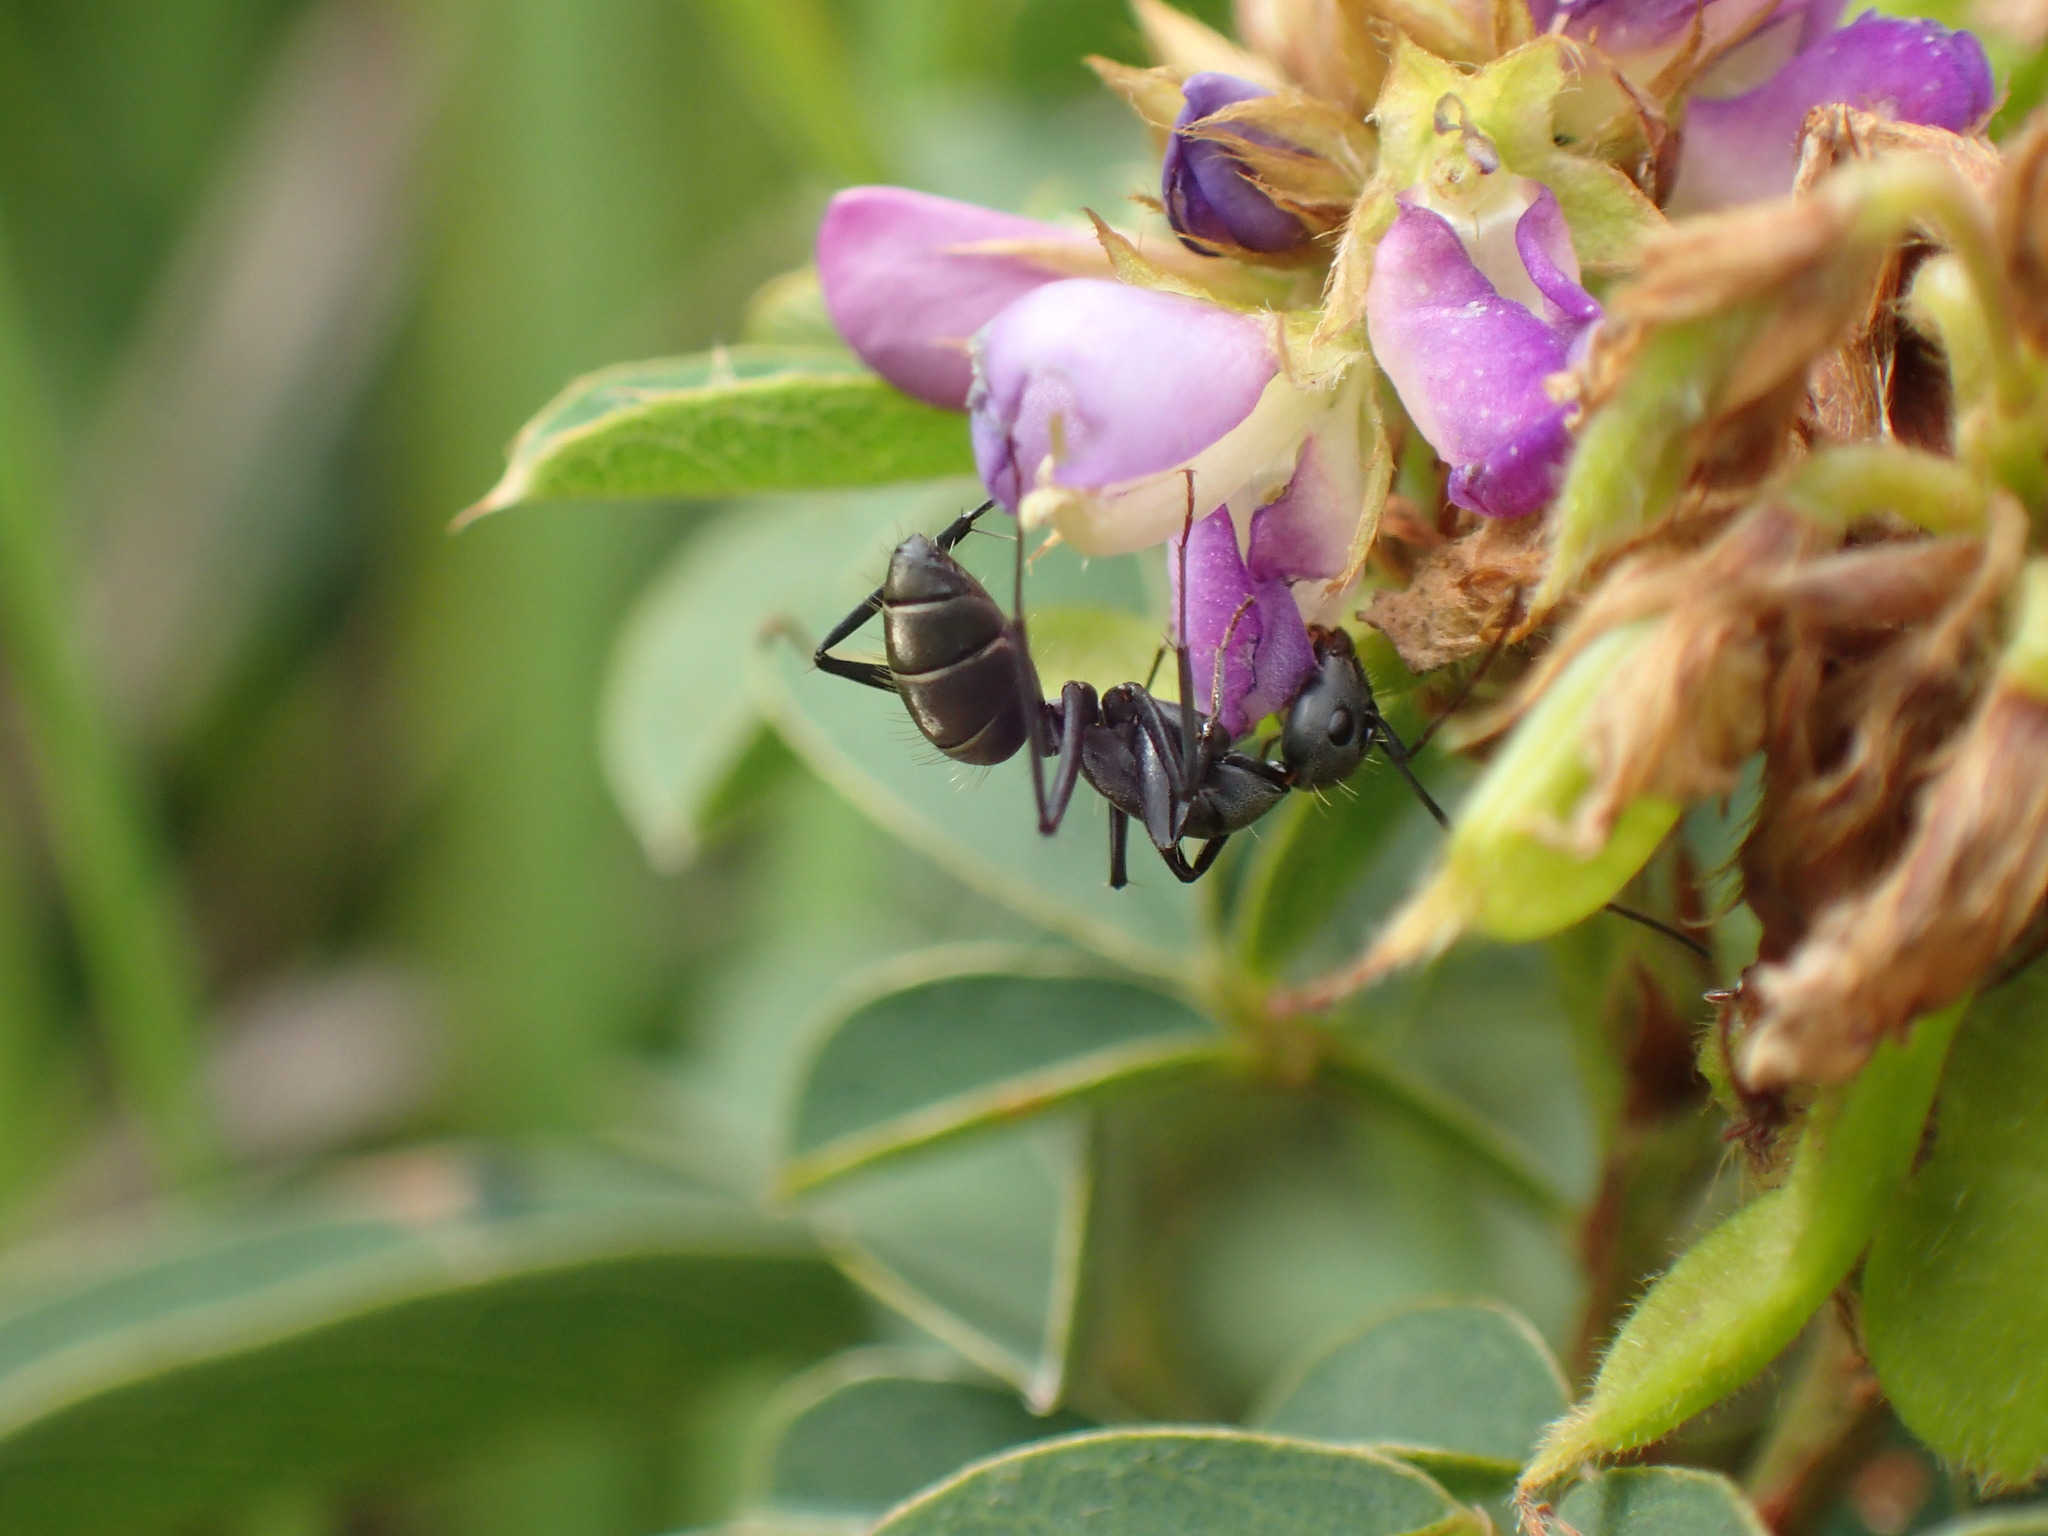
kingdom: Animalia
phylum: Arthropoda
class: Insecta
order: Hymenoptera
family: Formicidae
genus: Camponotus
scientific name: Camponotus cinctellus
